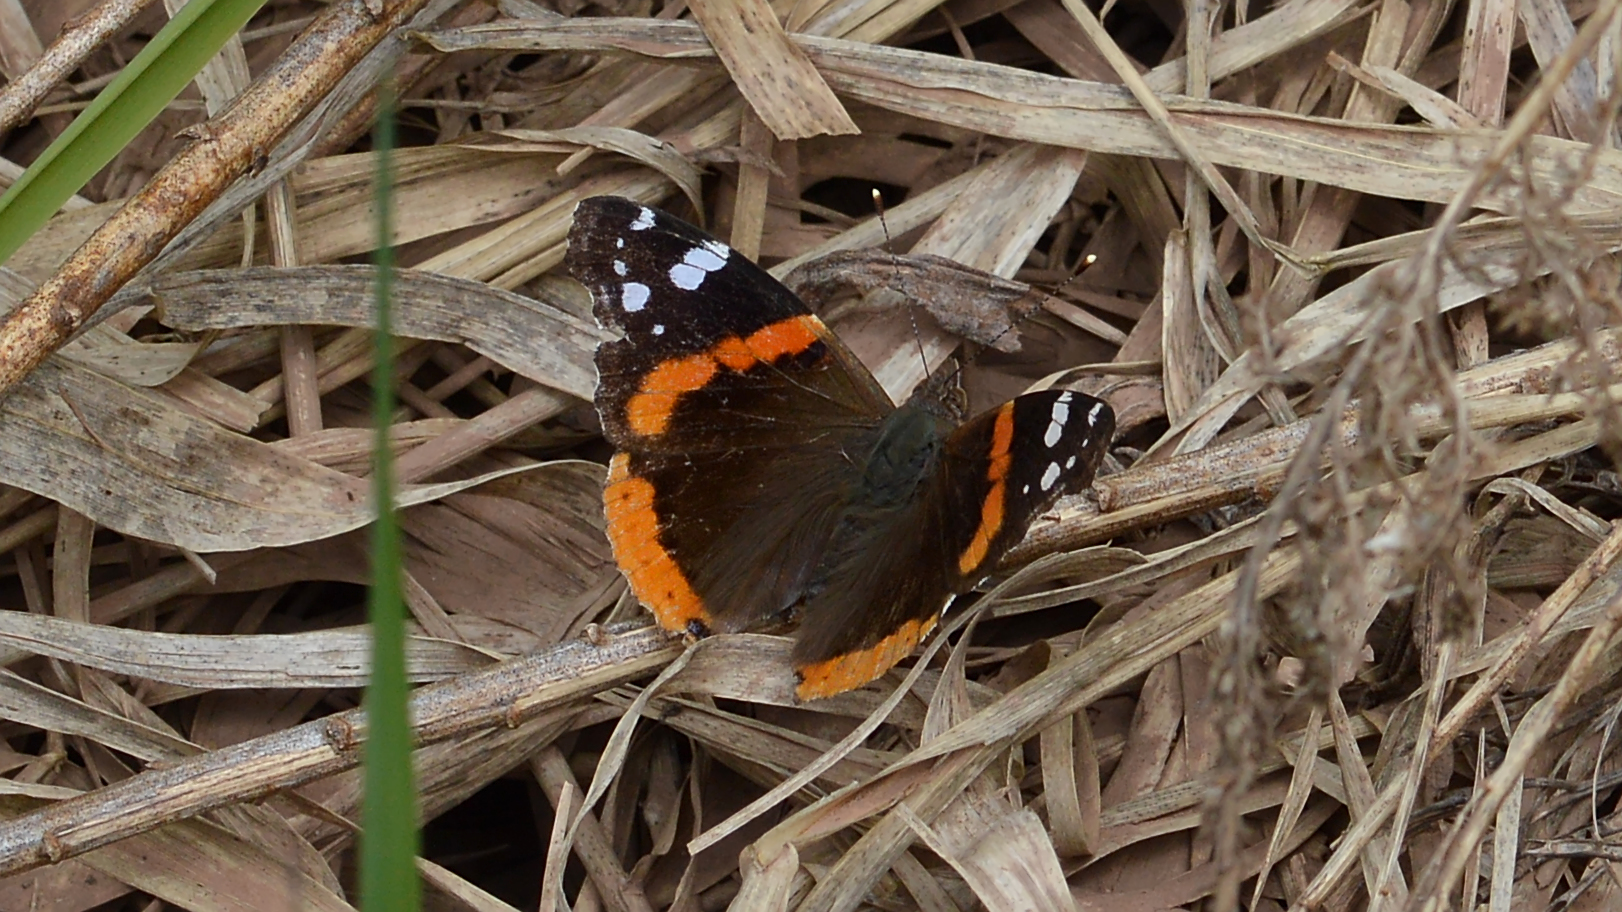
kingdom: Animalia
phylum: Arthropoda
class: Insecta
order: Lepidoptera
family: Nymphalidae
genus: Vanessa
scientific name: Vanessa atalanta
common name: Red admiral
